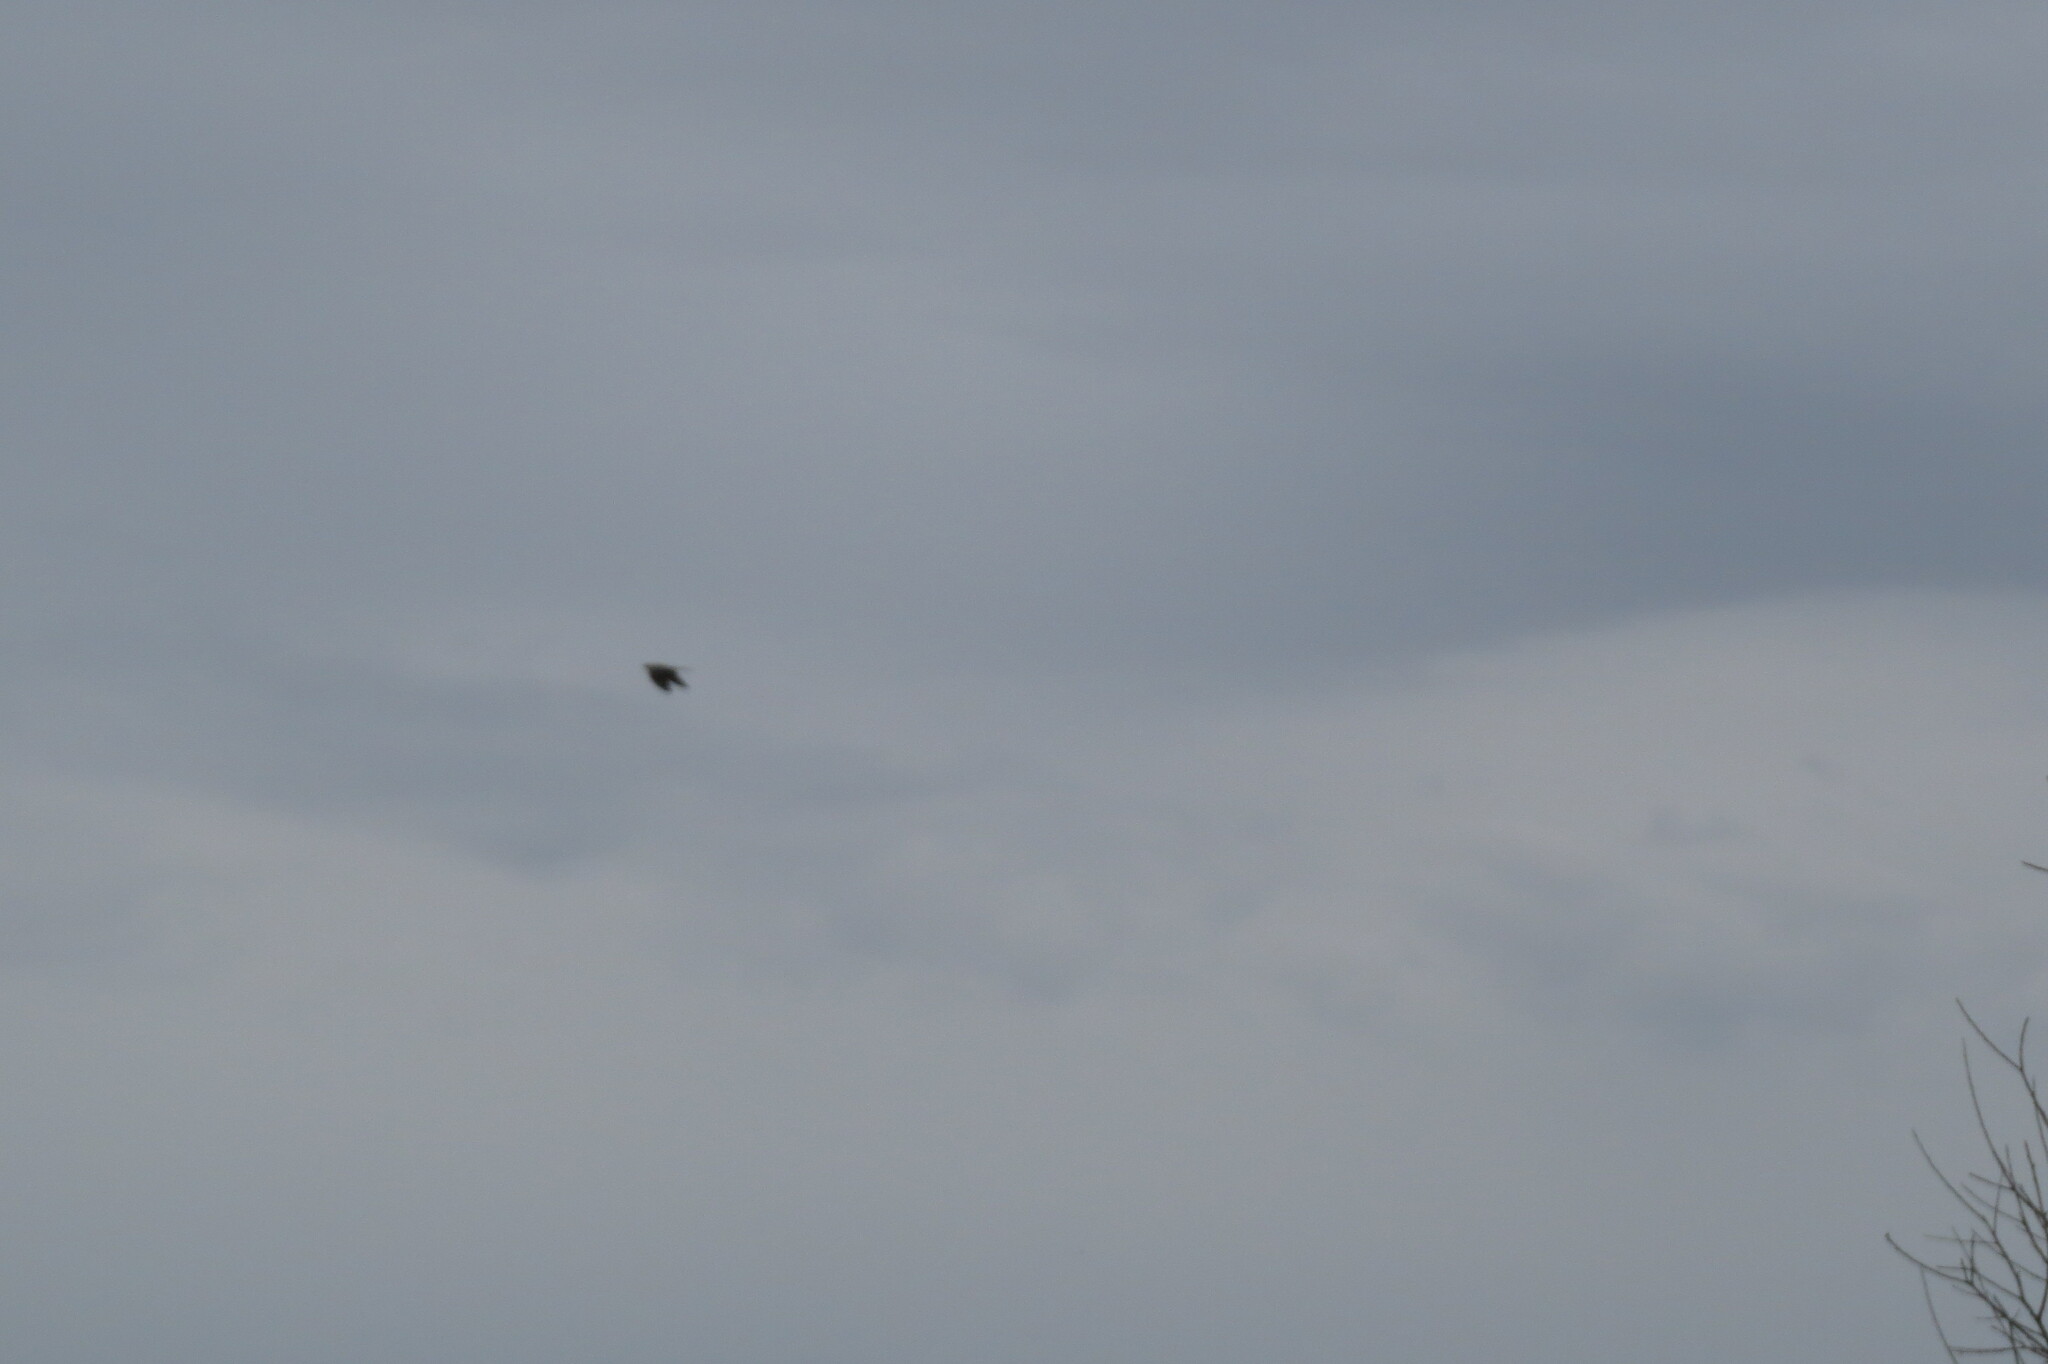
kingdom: Animalia
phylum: Chordata
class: Aves
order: Cuculiformes
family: Cuculidae
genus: Cuculus
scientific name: Cuculus canorus
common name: Common cuckoo
